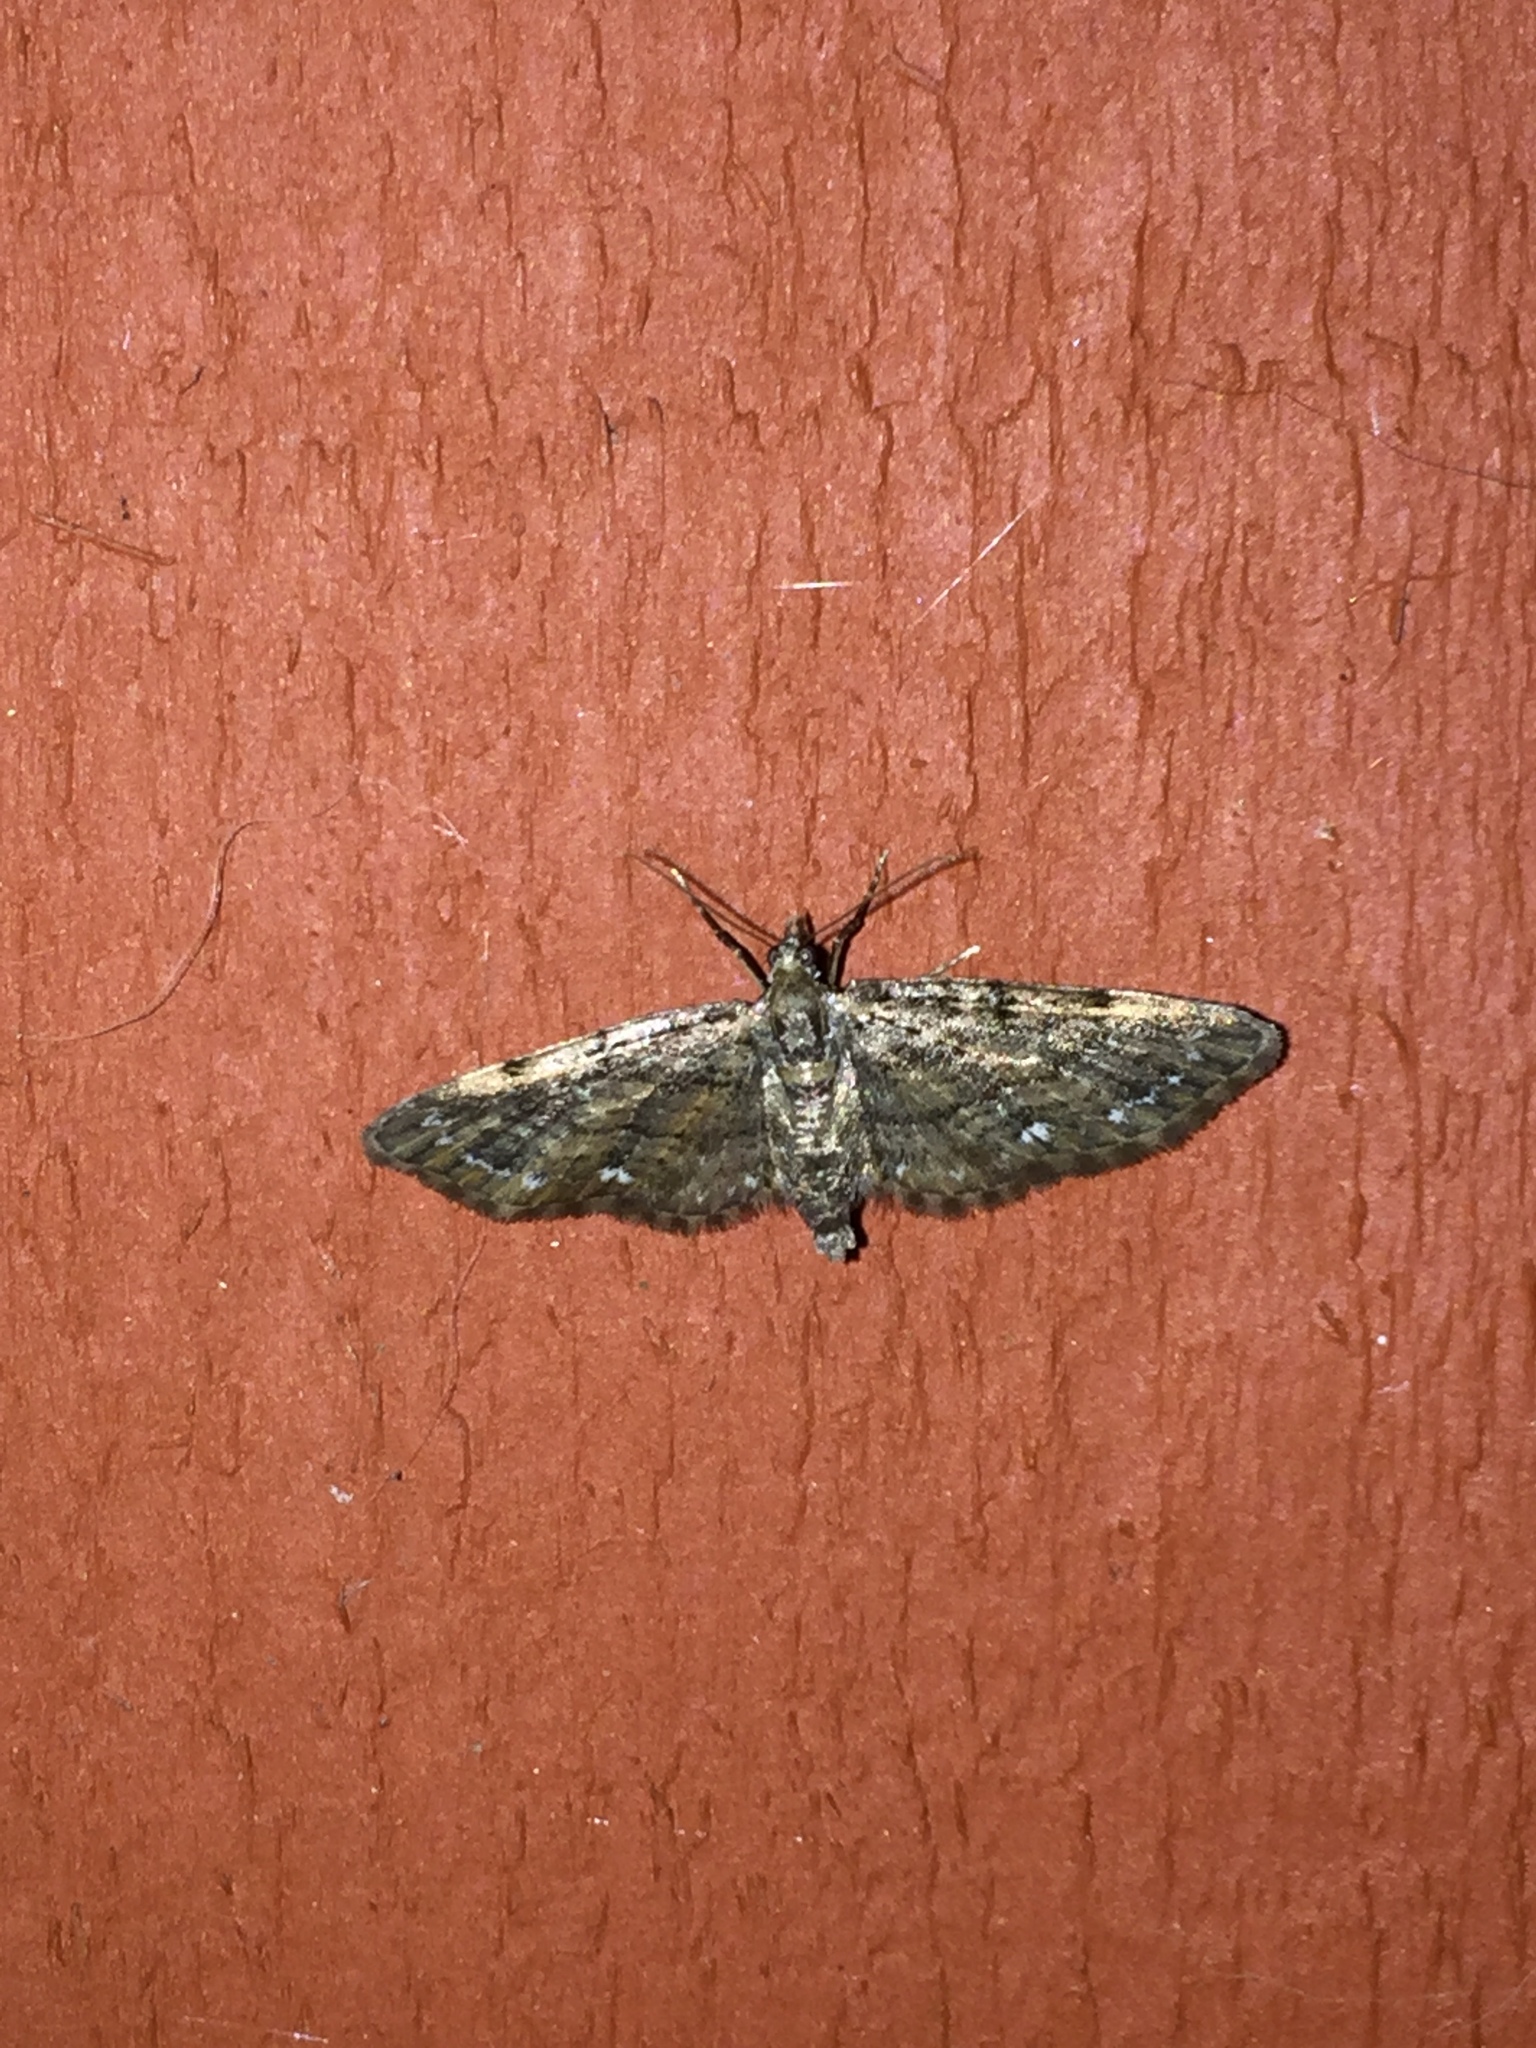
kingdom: Animalia
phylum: Arthropoda
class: Insecta
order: Lepidoptera
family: Geometridae
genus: Pasiphila
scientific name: Pasiphila rectangulata
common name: Green pug
